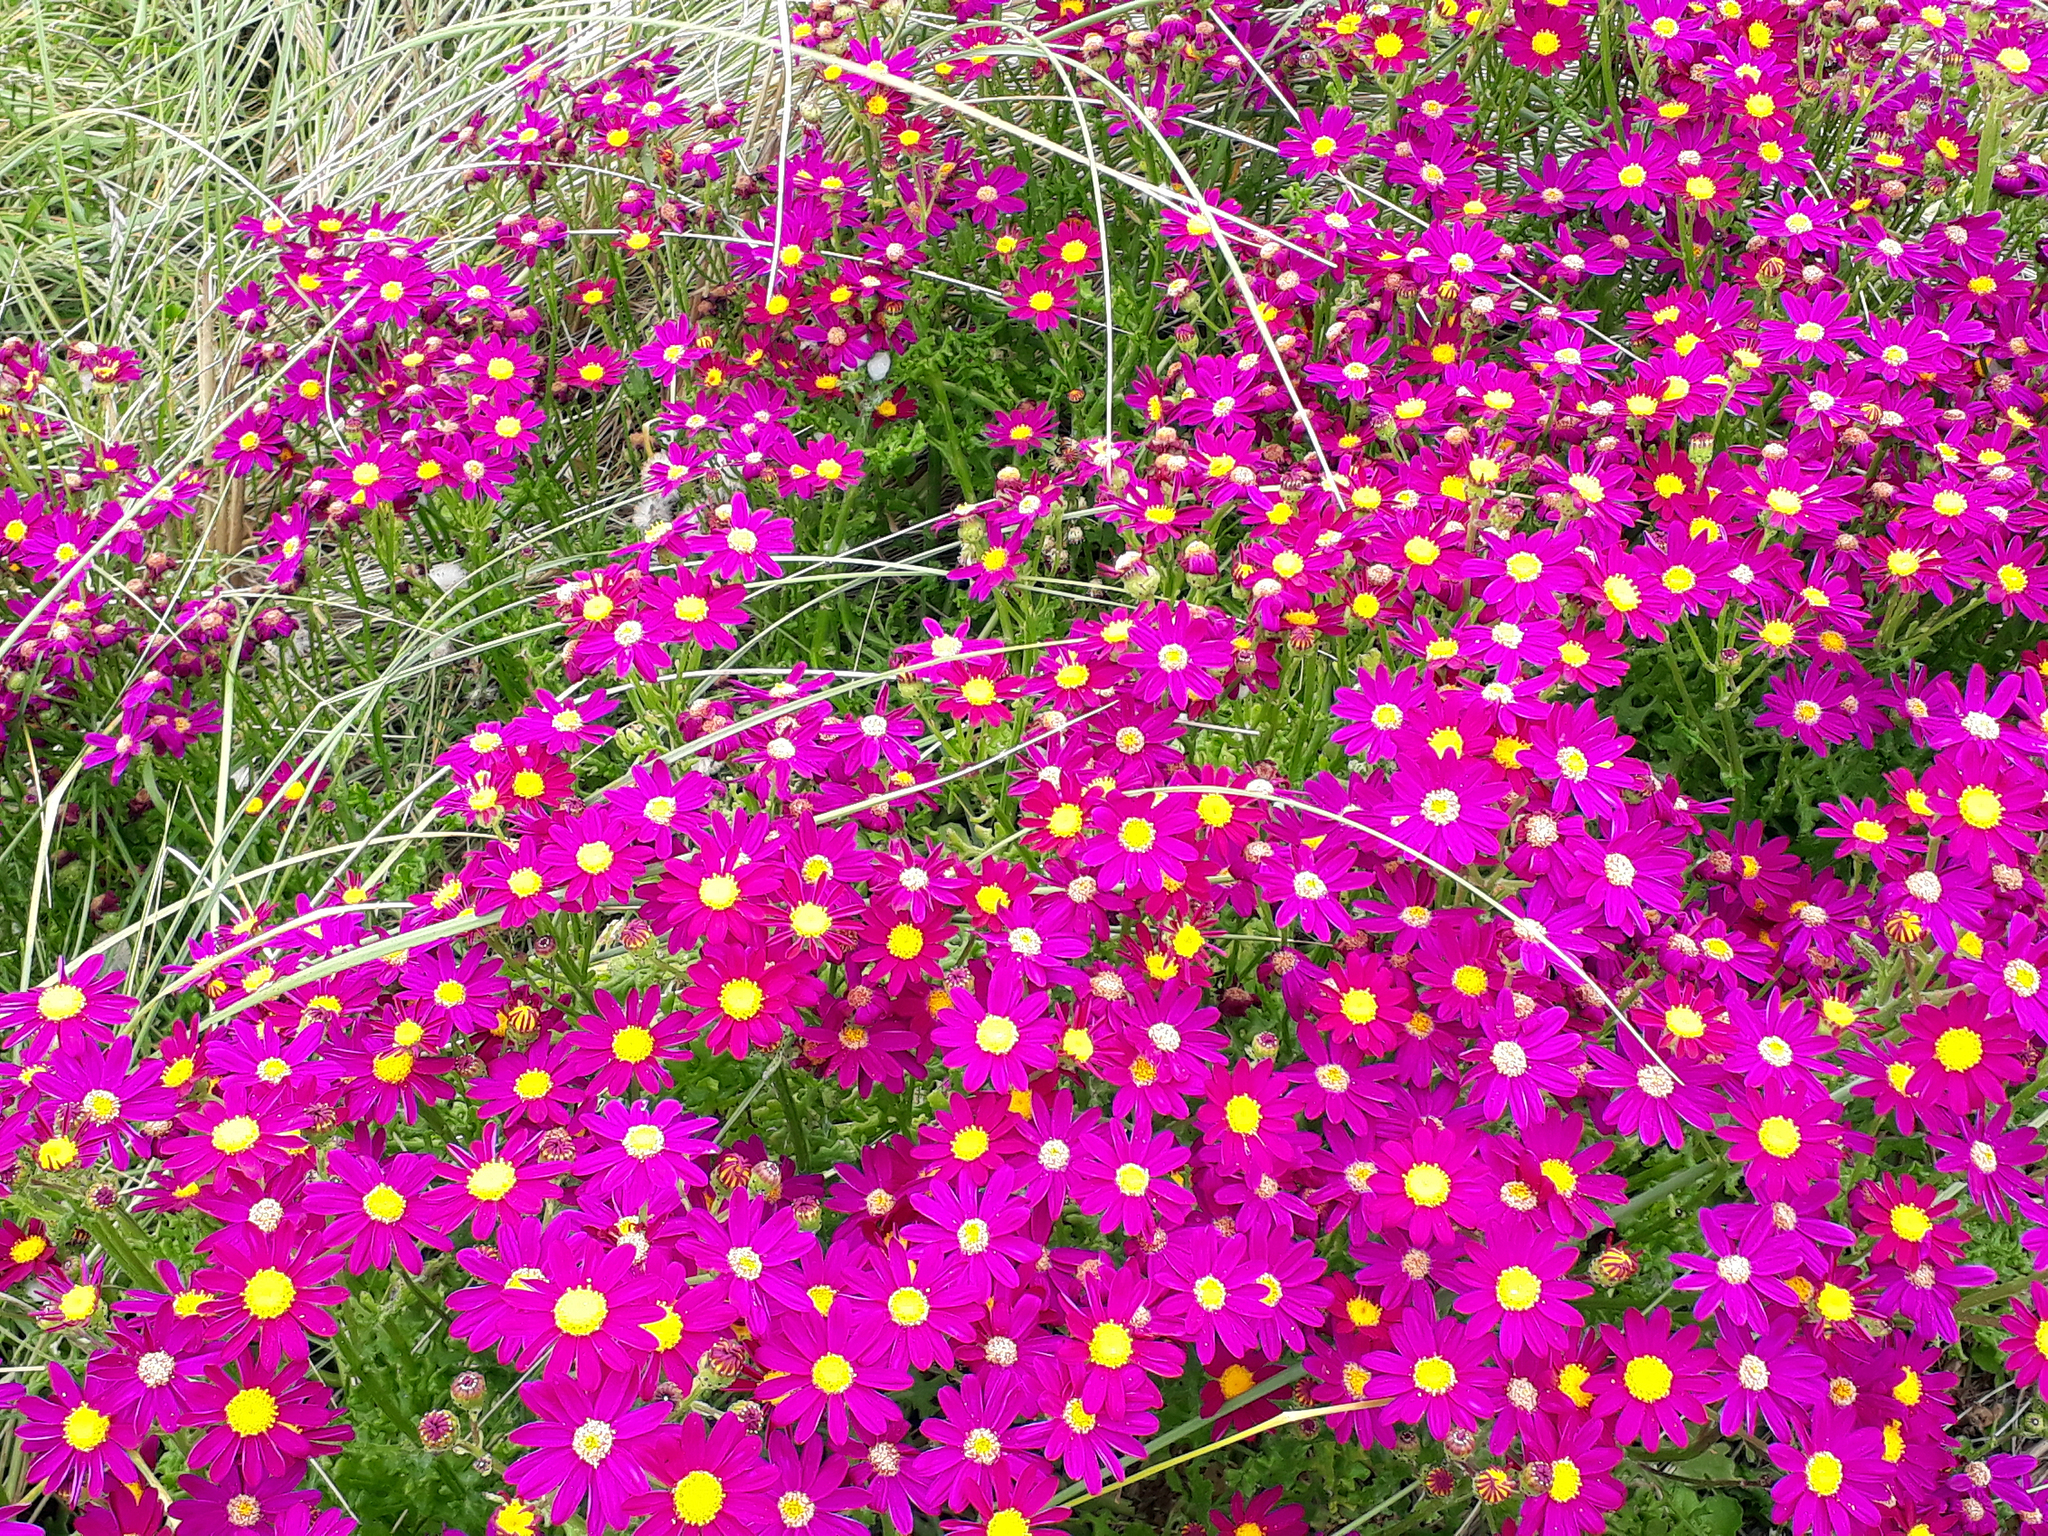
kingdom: Plantae
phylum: Tracheophyta
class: Magnoliopsida
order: Asterales
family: Asteraceae
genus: Senecio
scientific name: Senecio elegans
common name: Purple groundsel
